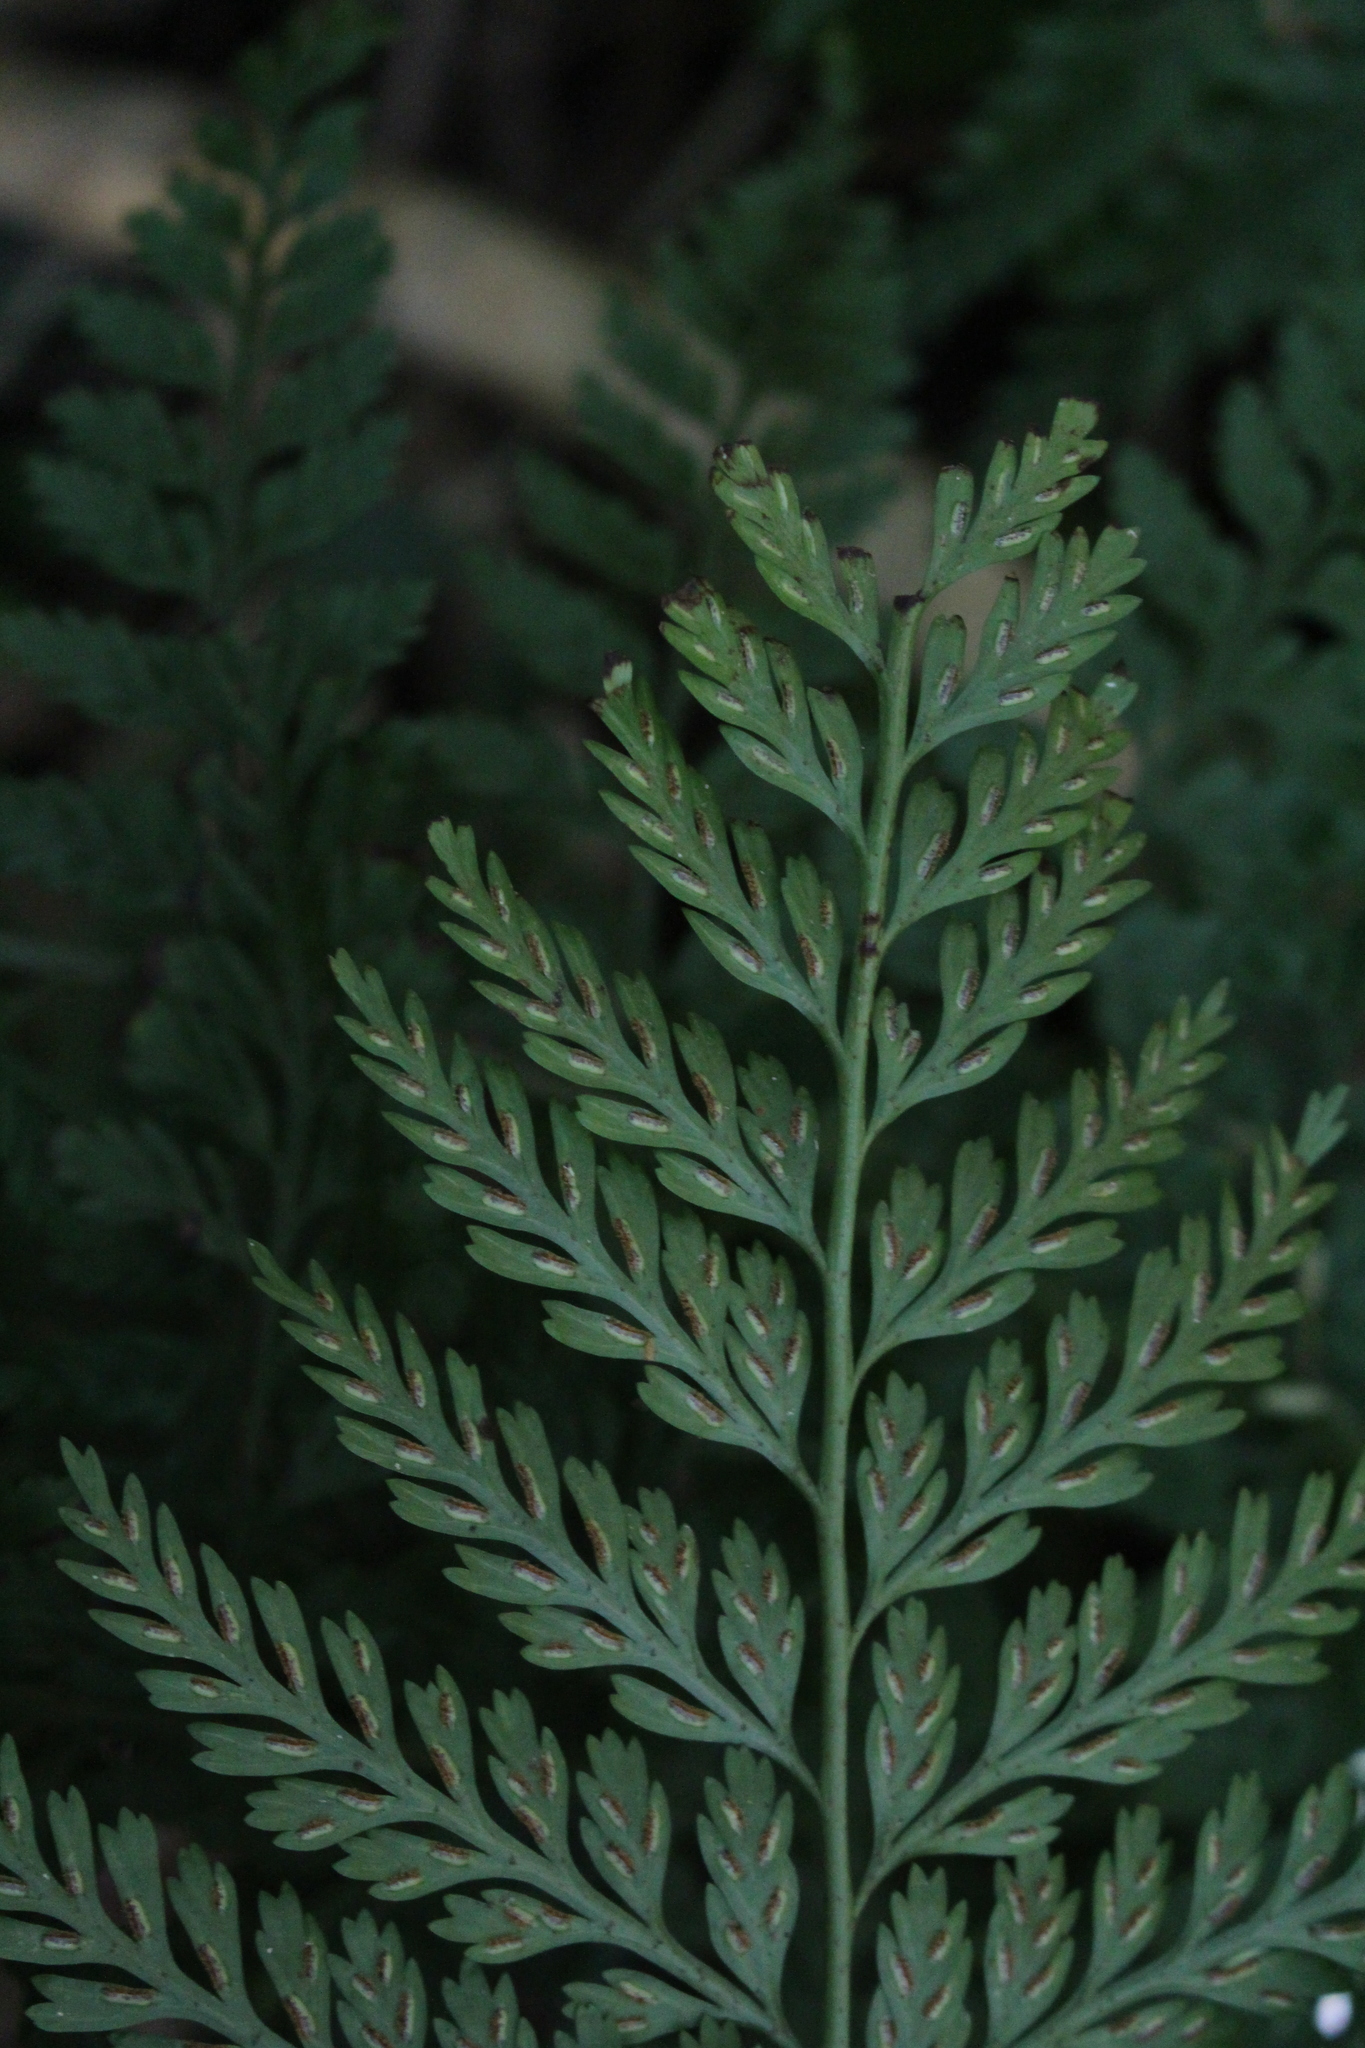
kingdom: Plantae
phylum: Tracheophyta
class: Polypodiopsida
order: Polypodiales
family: Aspleniaceae
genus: Asplenium
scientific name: Asplenium
